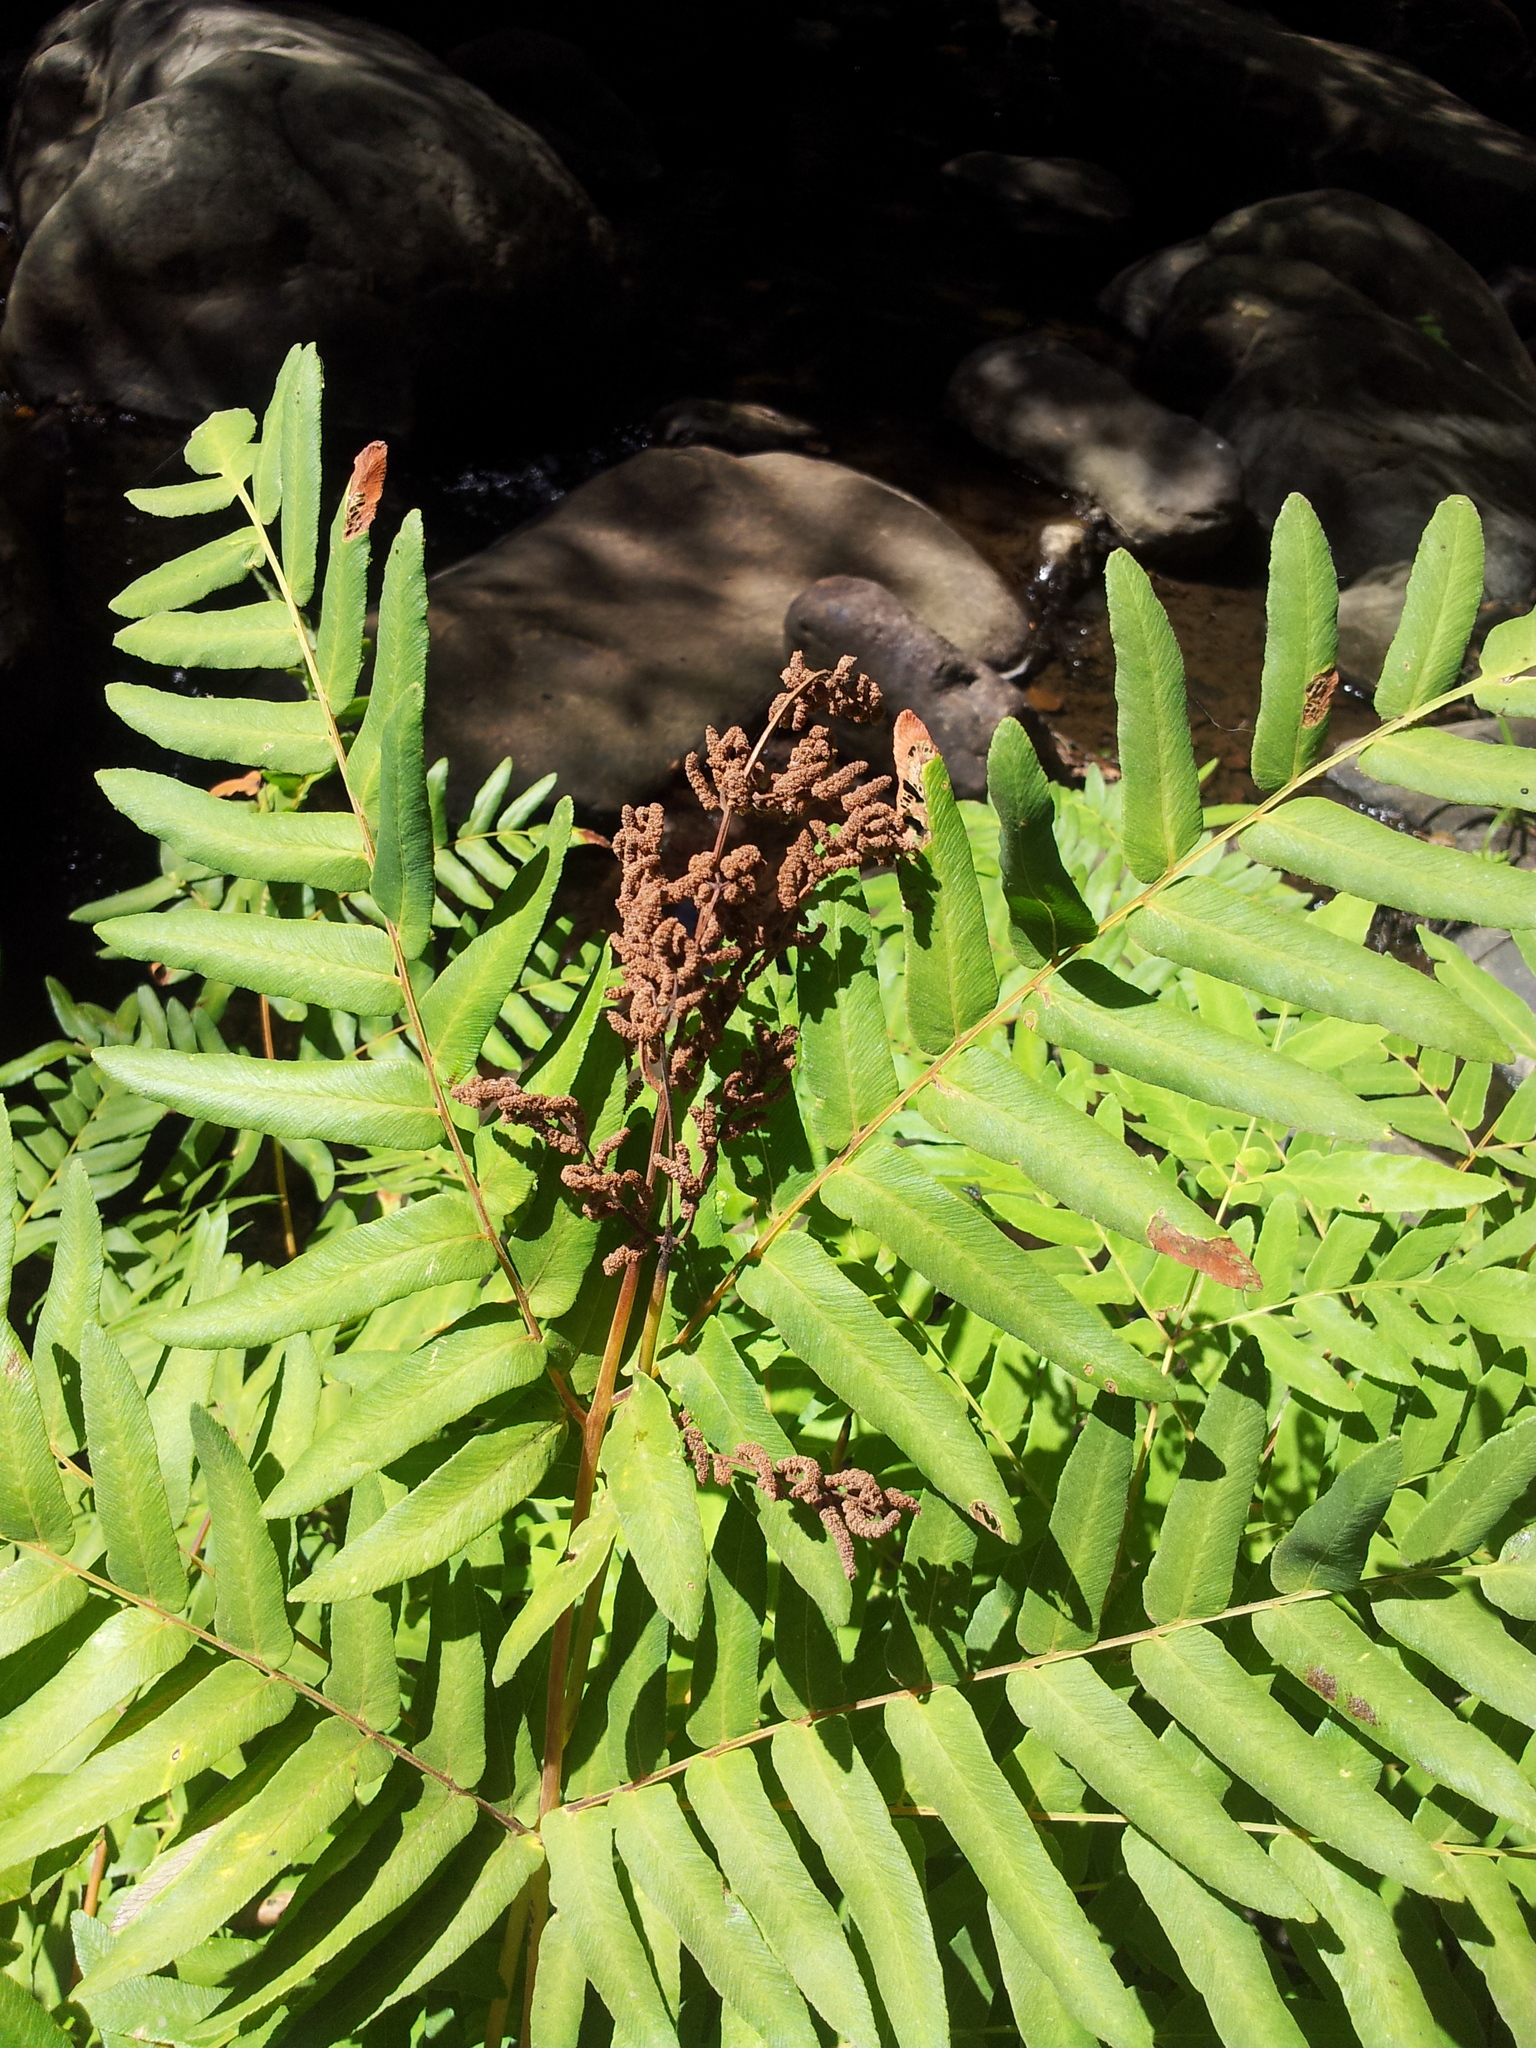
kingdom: Plantae
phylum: Tracheophyta
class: Polypodiopsida
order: Osmundales
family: Osmundaceae
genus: Osmunda
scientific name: Osmunda regalis
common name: Royal fern
